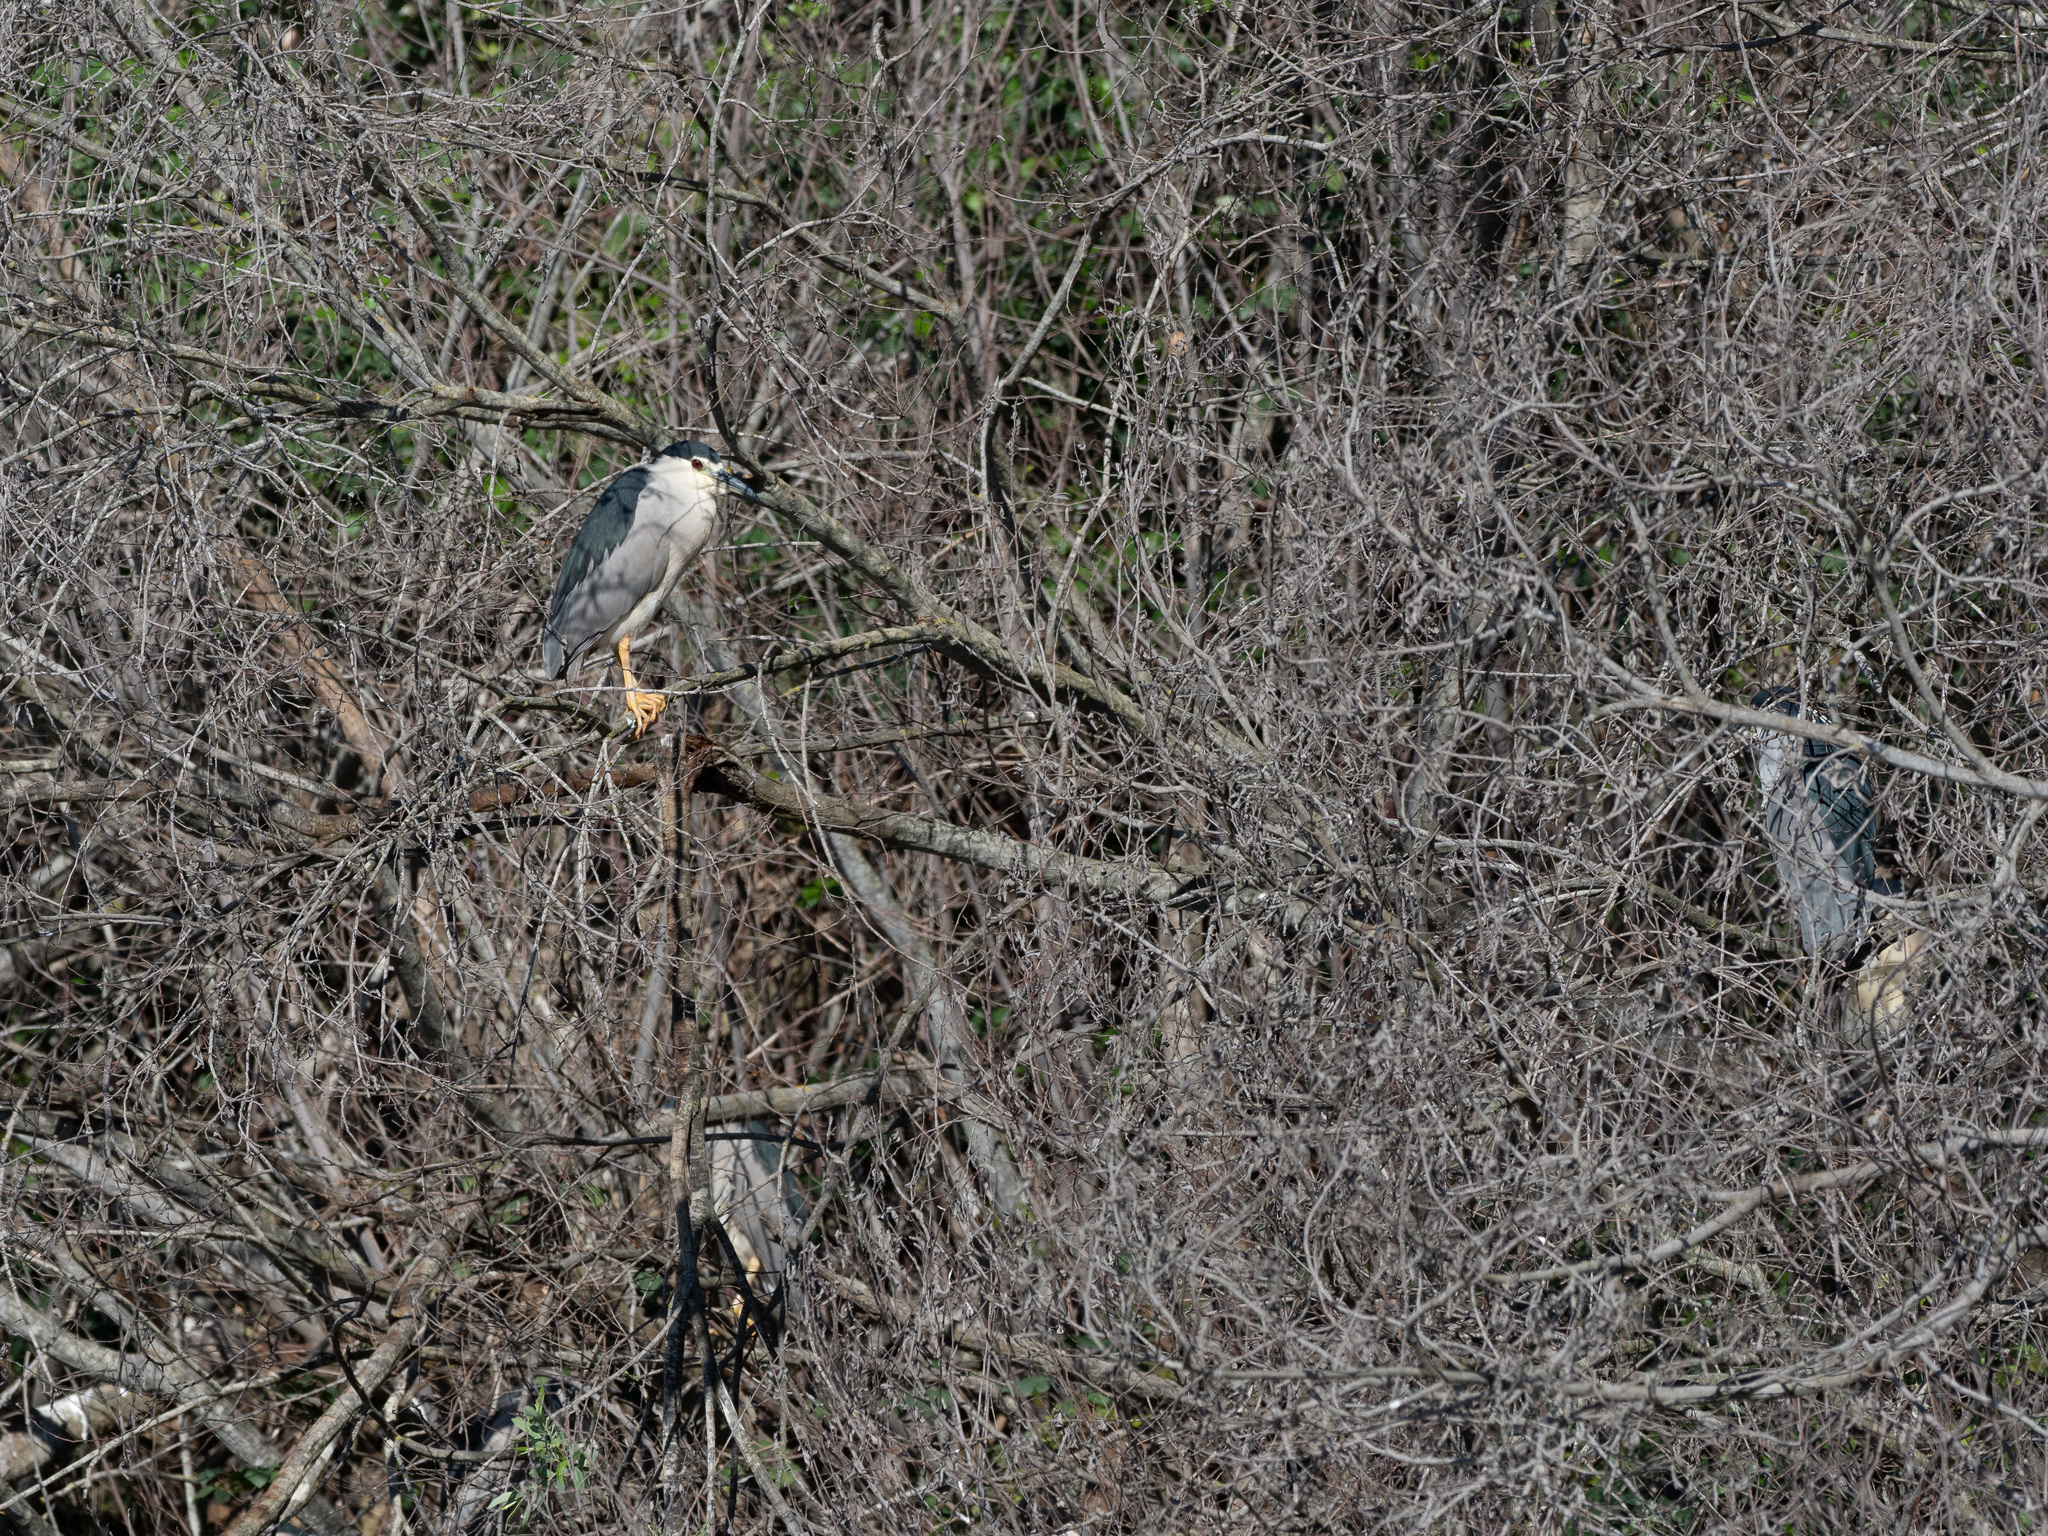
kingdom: Animalia
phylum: Chordata
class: Aves
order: Pelecaniformes
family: Ardeidae
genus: Nycticorax
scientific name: Nycticorax nycticorax
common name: Black-crowned night heron
